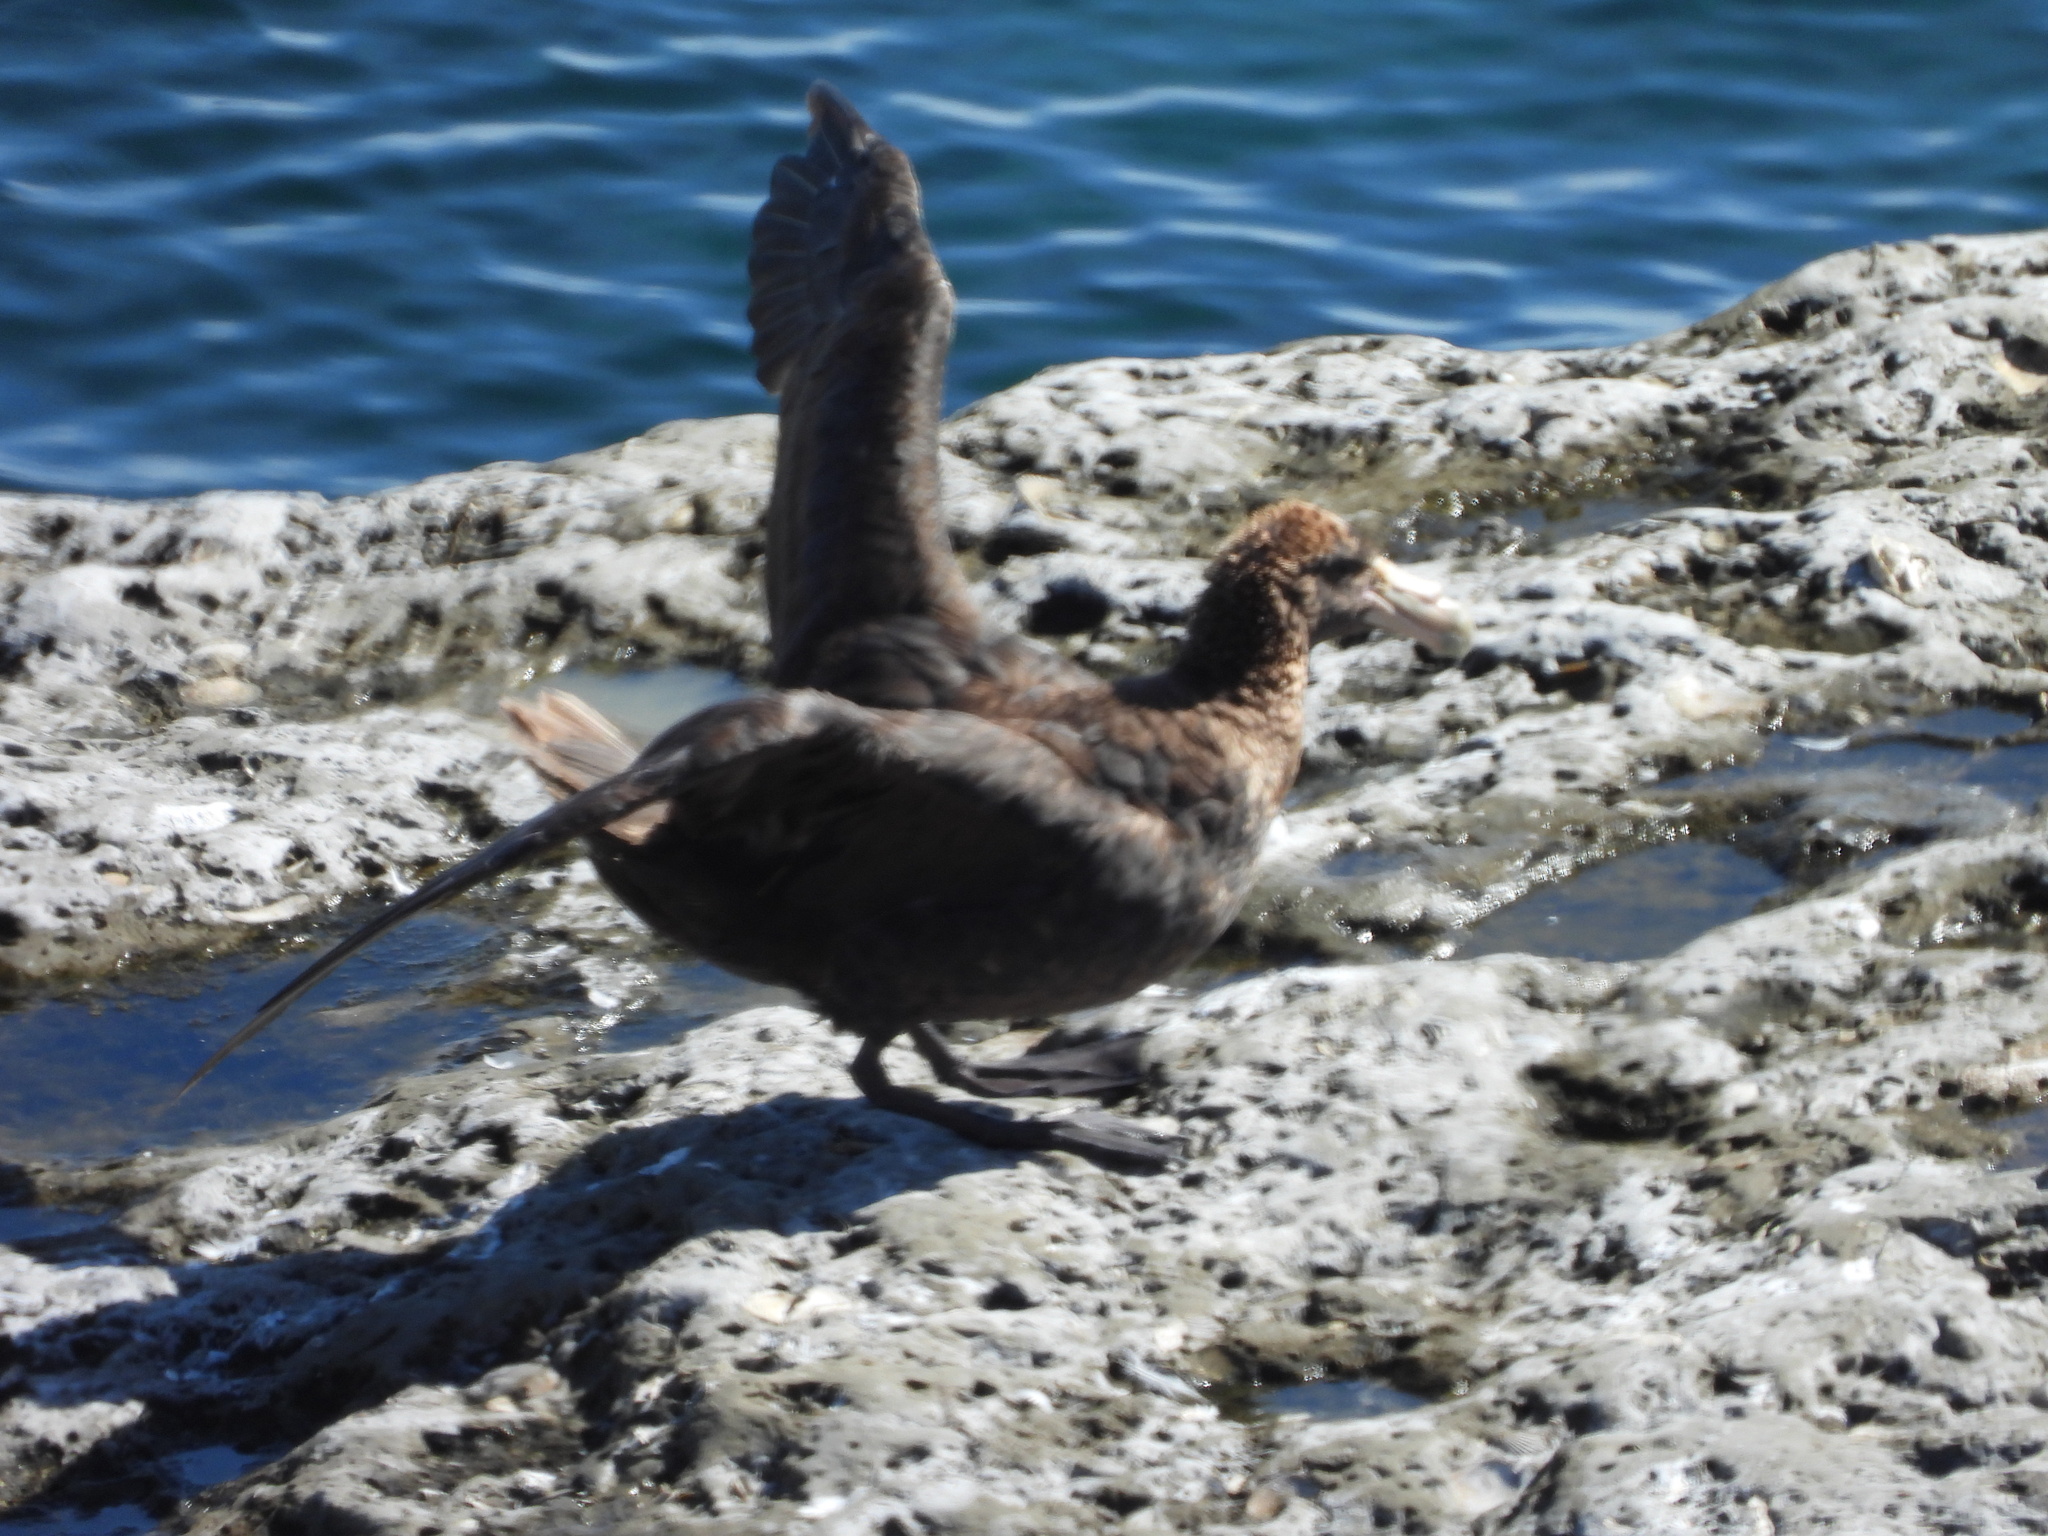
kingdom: Animalia
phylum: Chordata
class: Aves
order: Procellariiformes
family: Procellariidae
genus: Macronectes
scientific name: Macronectes giganteus
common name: Southern giant petrel
